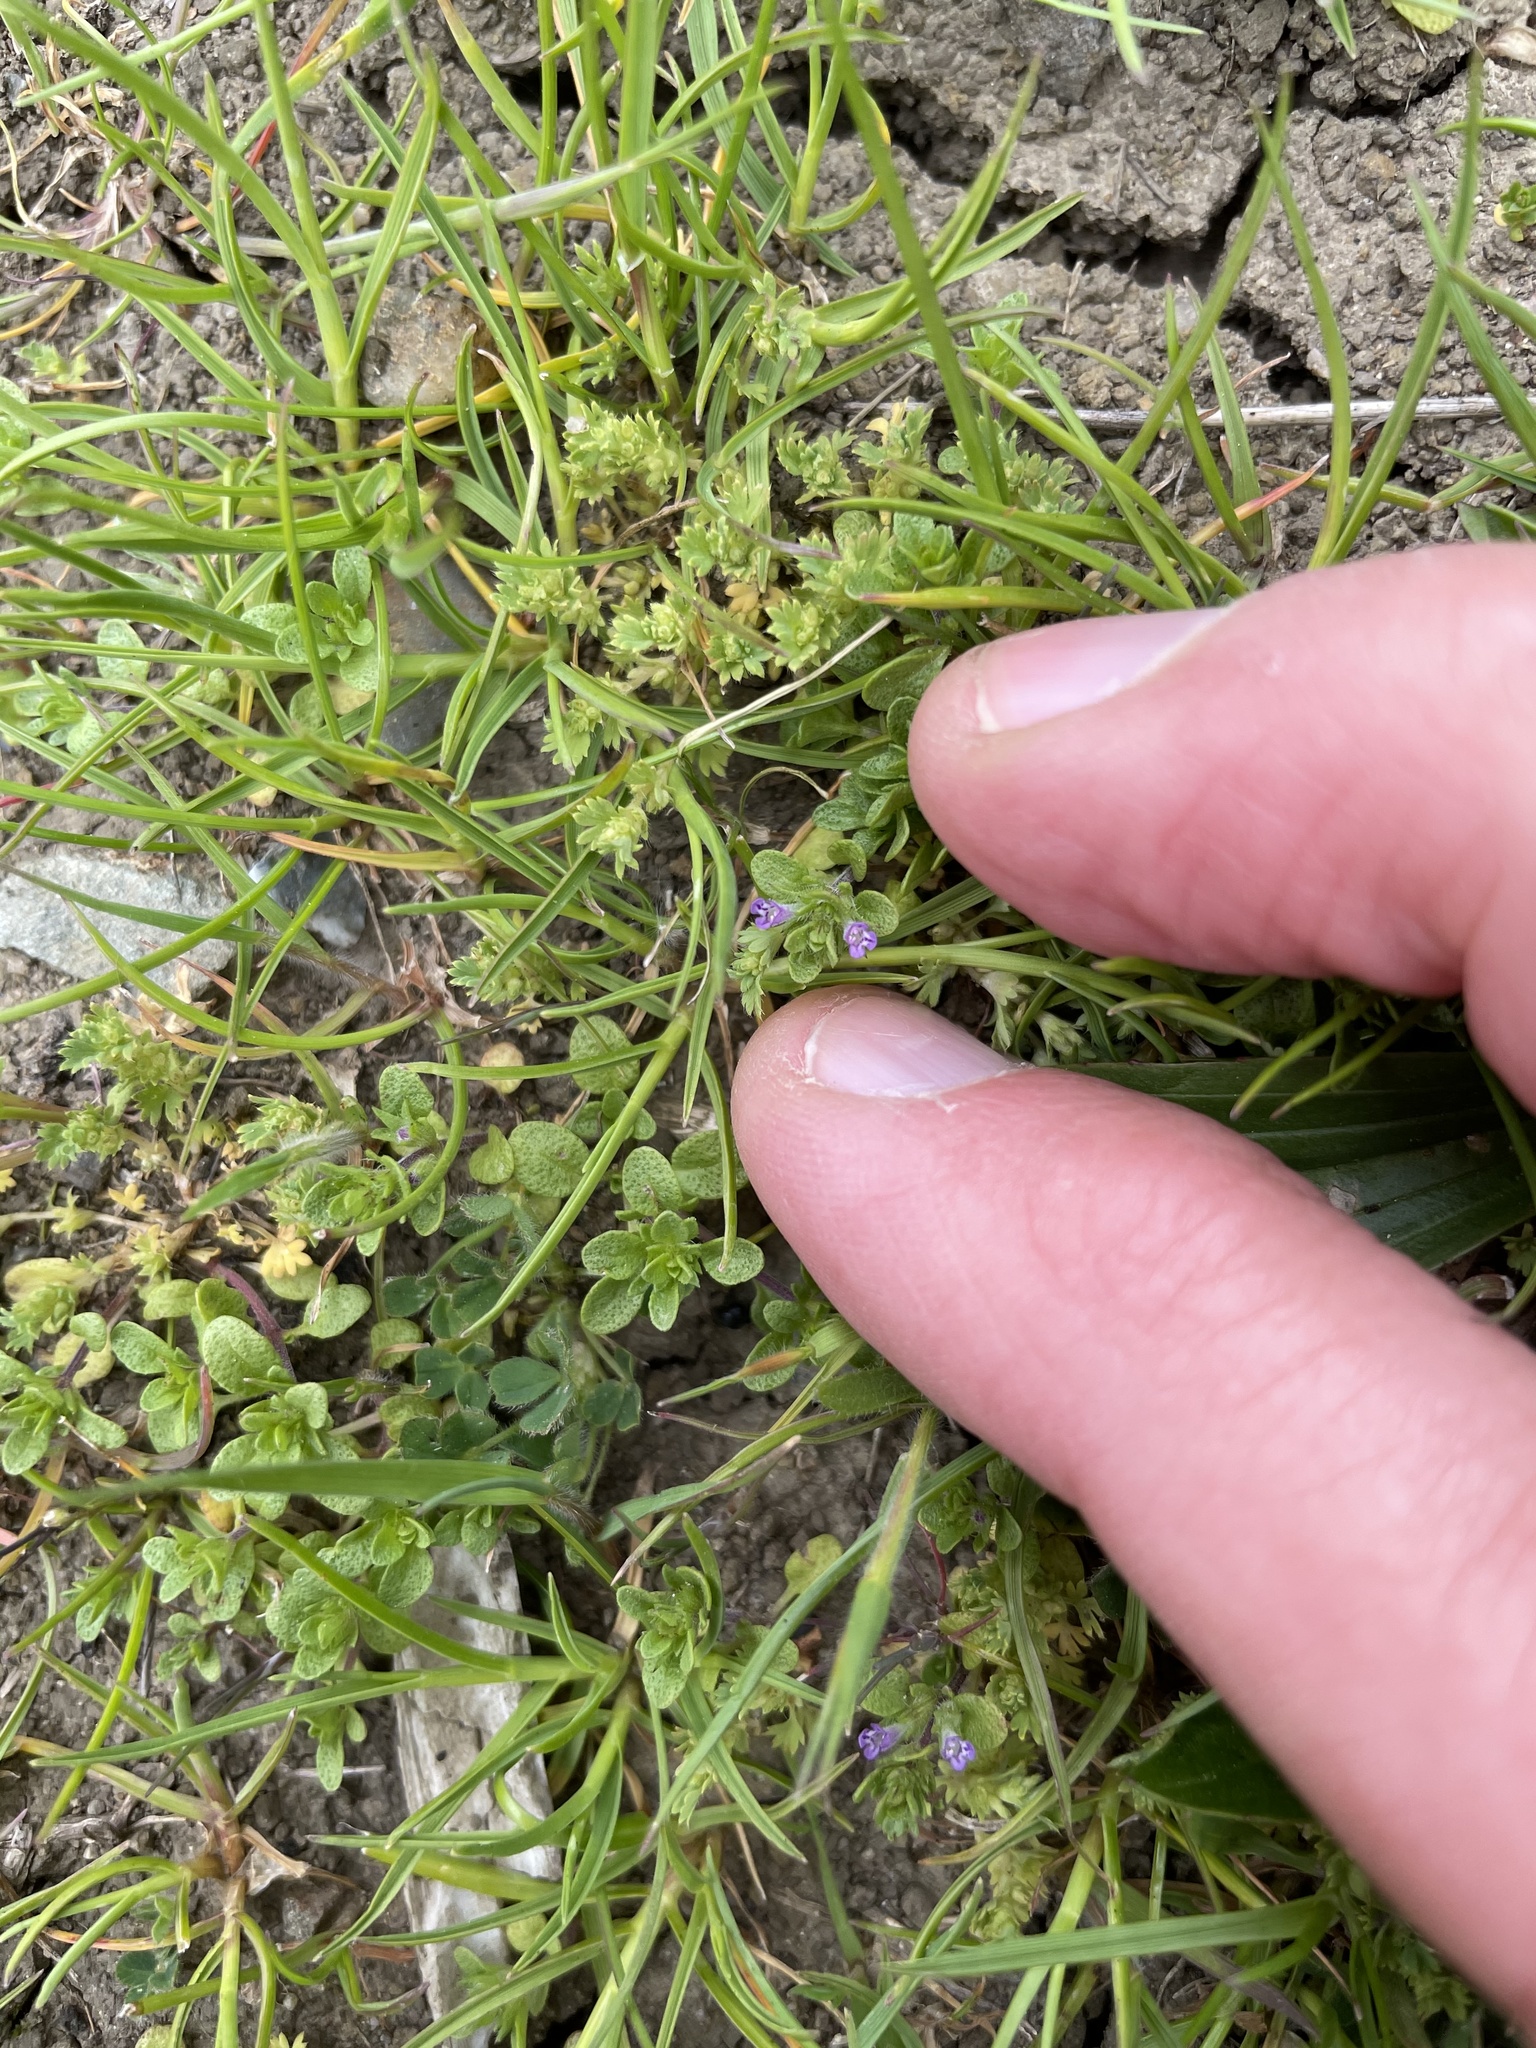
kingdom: Plantae
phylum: Tracheophyta
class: Magnoliopsida
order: Lamiales
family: Lamiaceae
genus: Pogogyne
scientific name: Pogogyne serpylloides
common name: Thymeleaf mesamint
